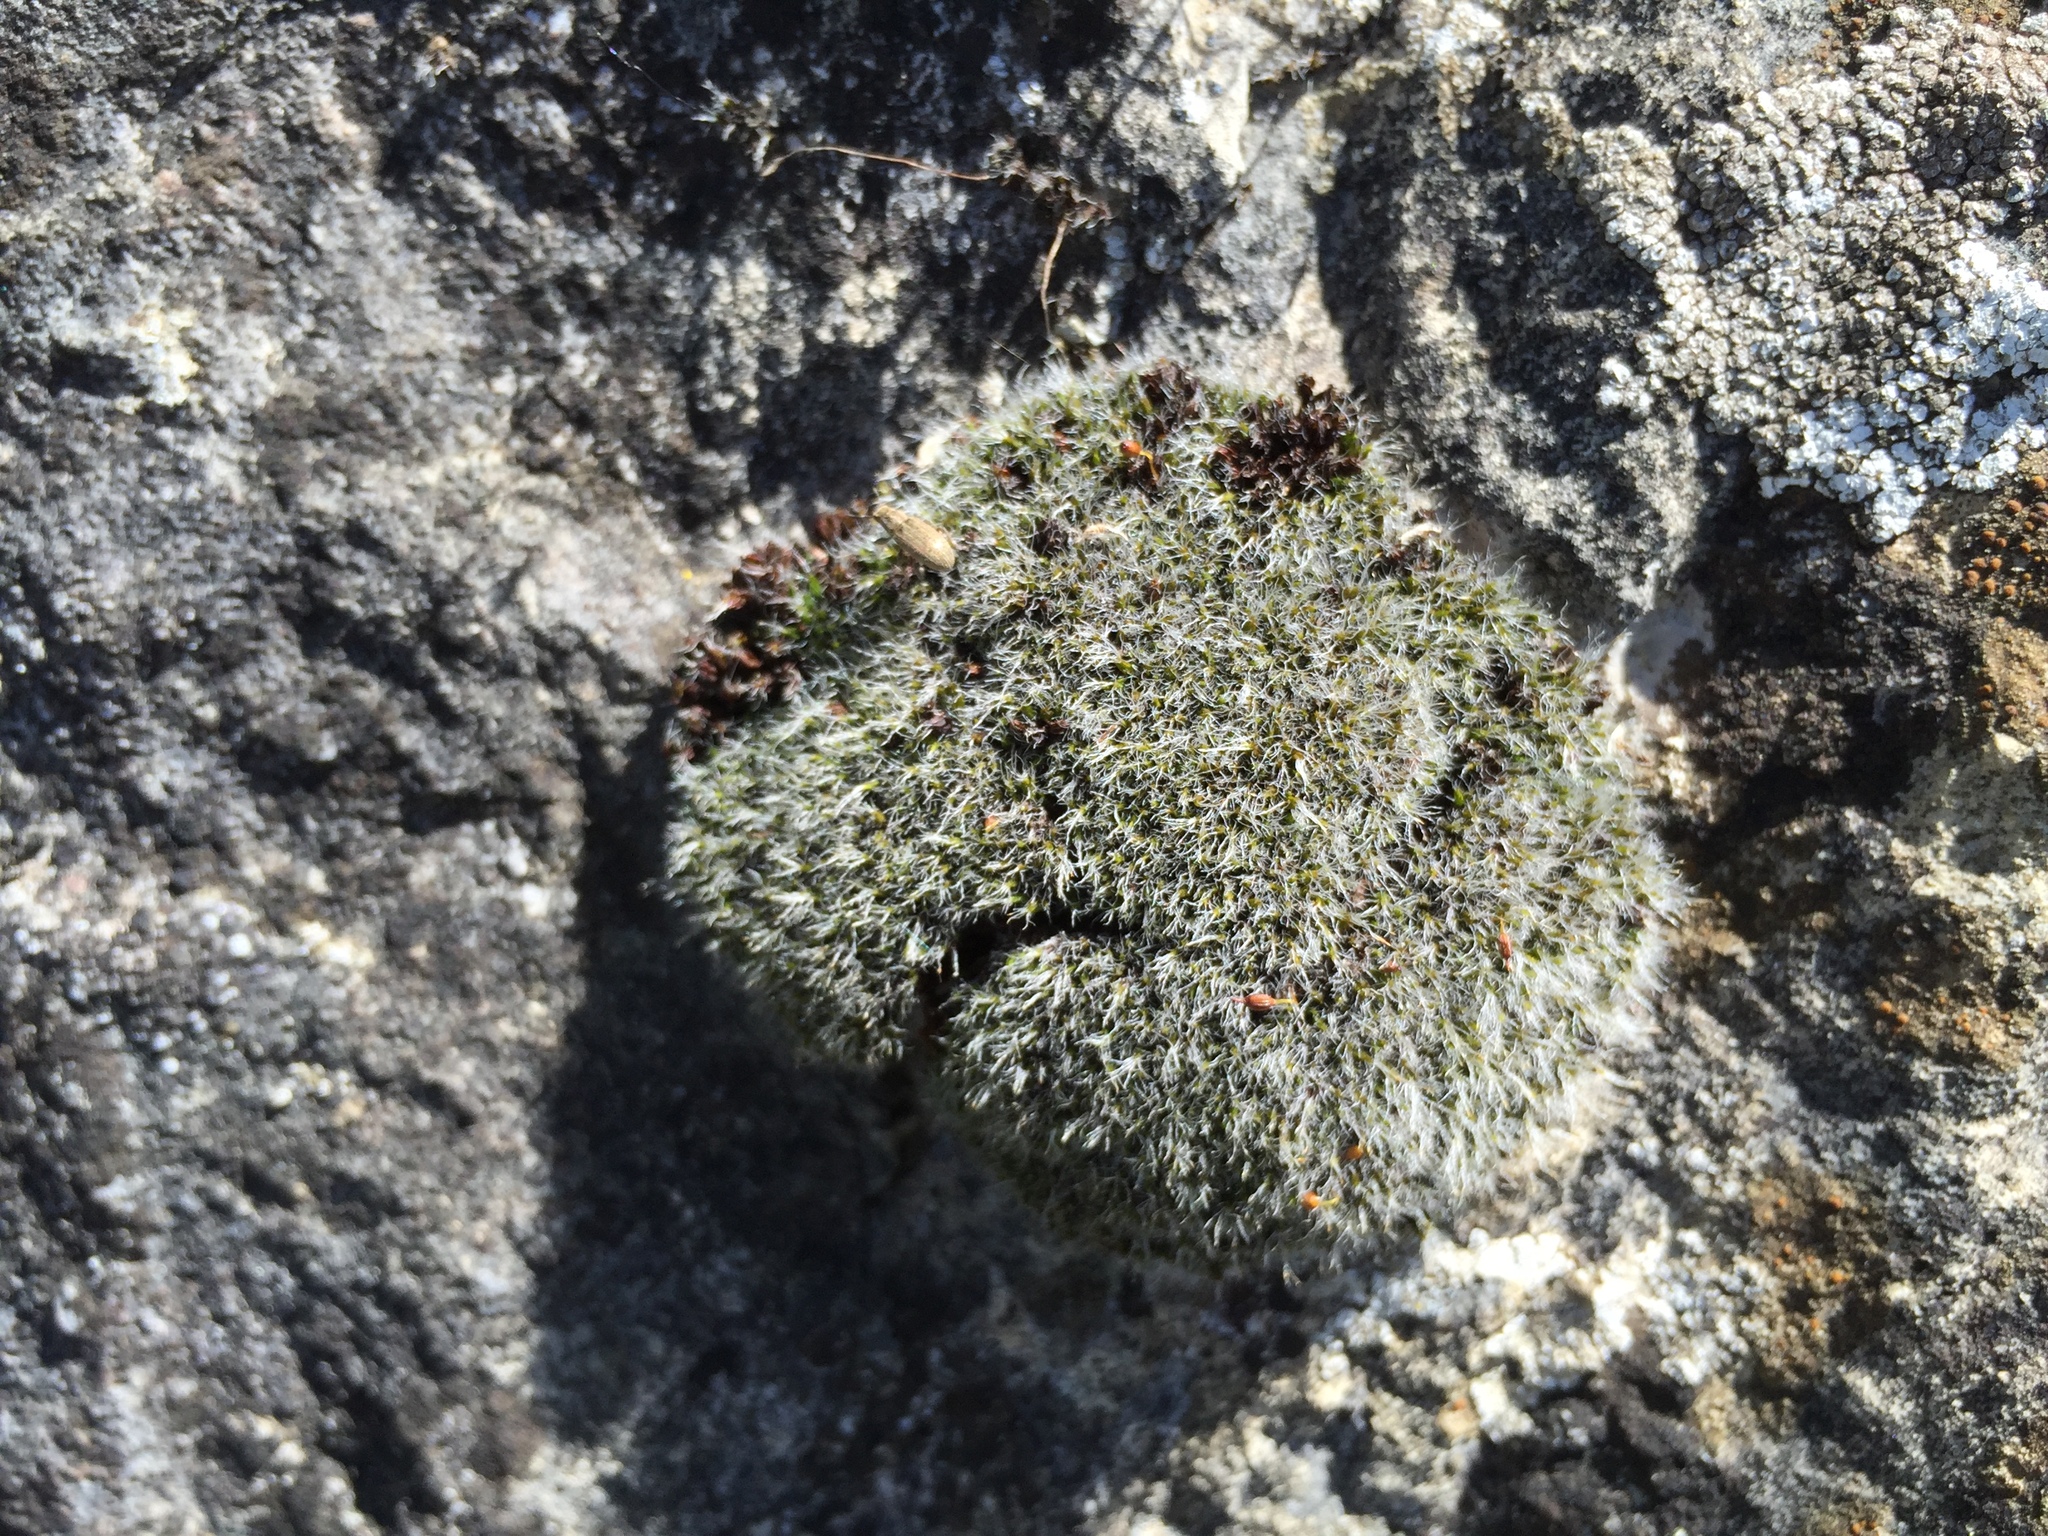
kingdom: Plantae
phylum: Bryophyta
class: Bryopsida
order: Grimmiales
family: Grimmiaceae
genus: Grimmia
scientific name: Grimmia pulvinata
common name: Grey-cushioned grimmia
